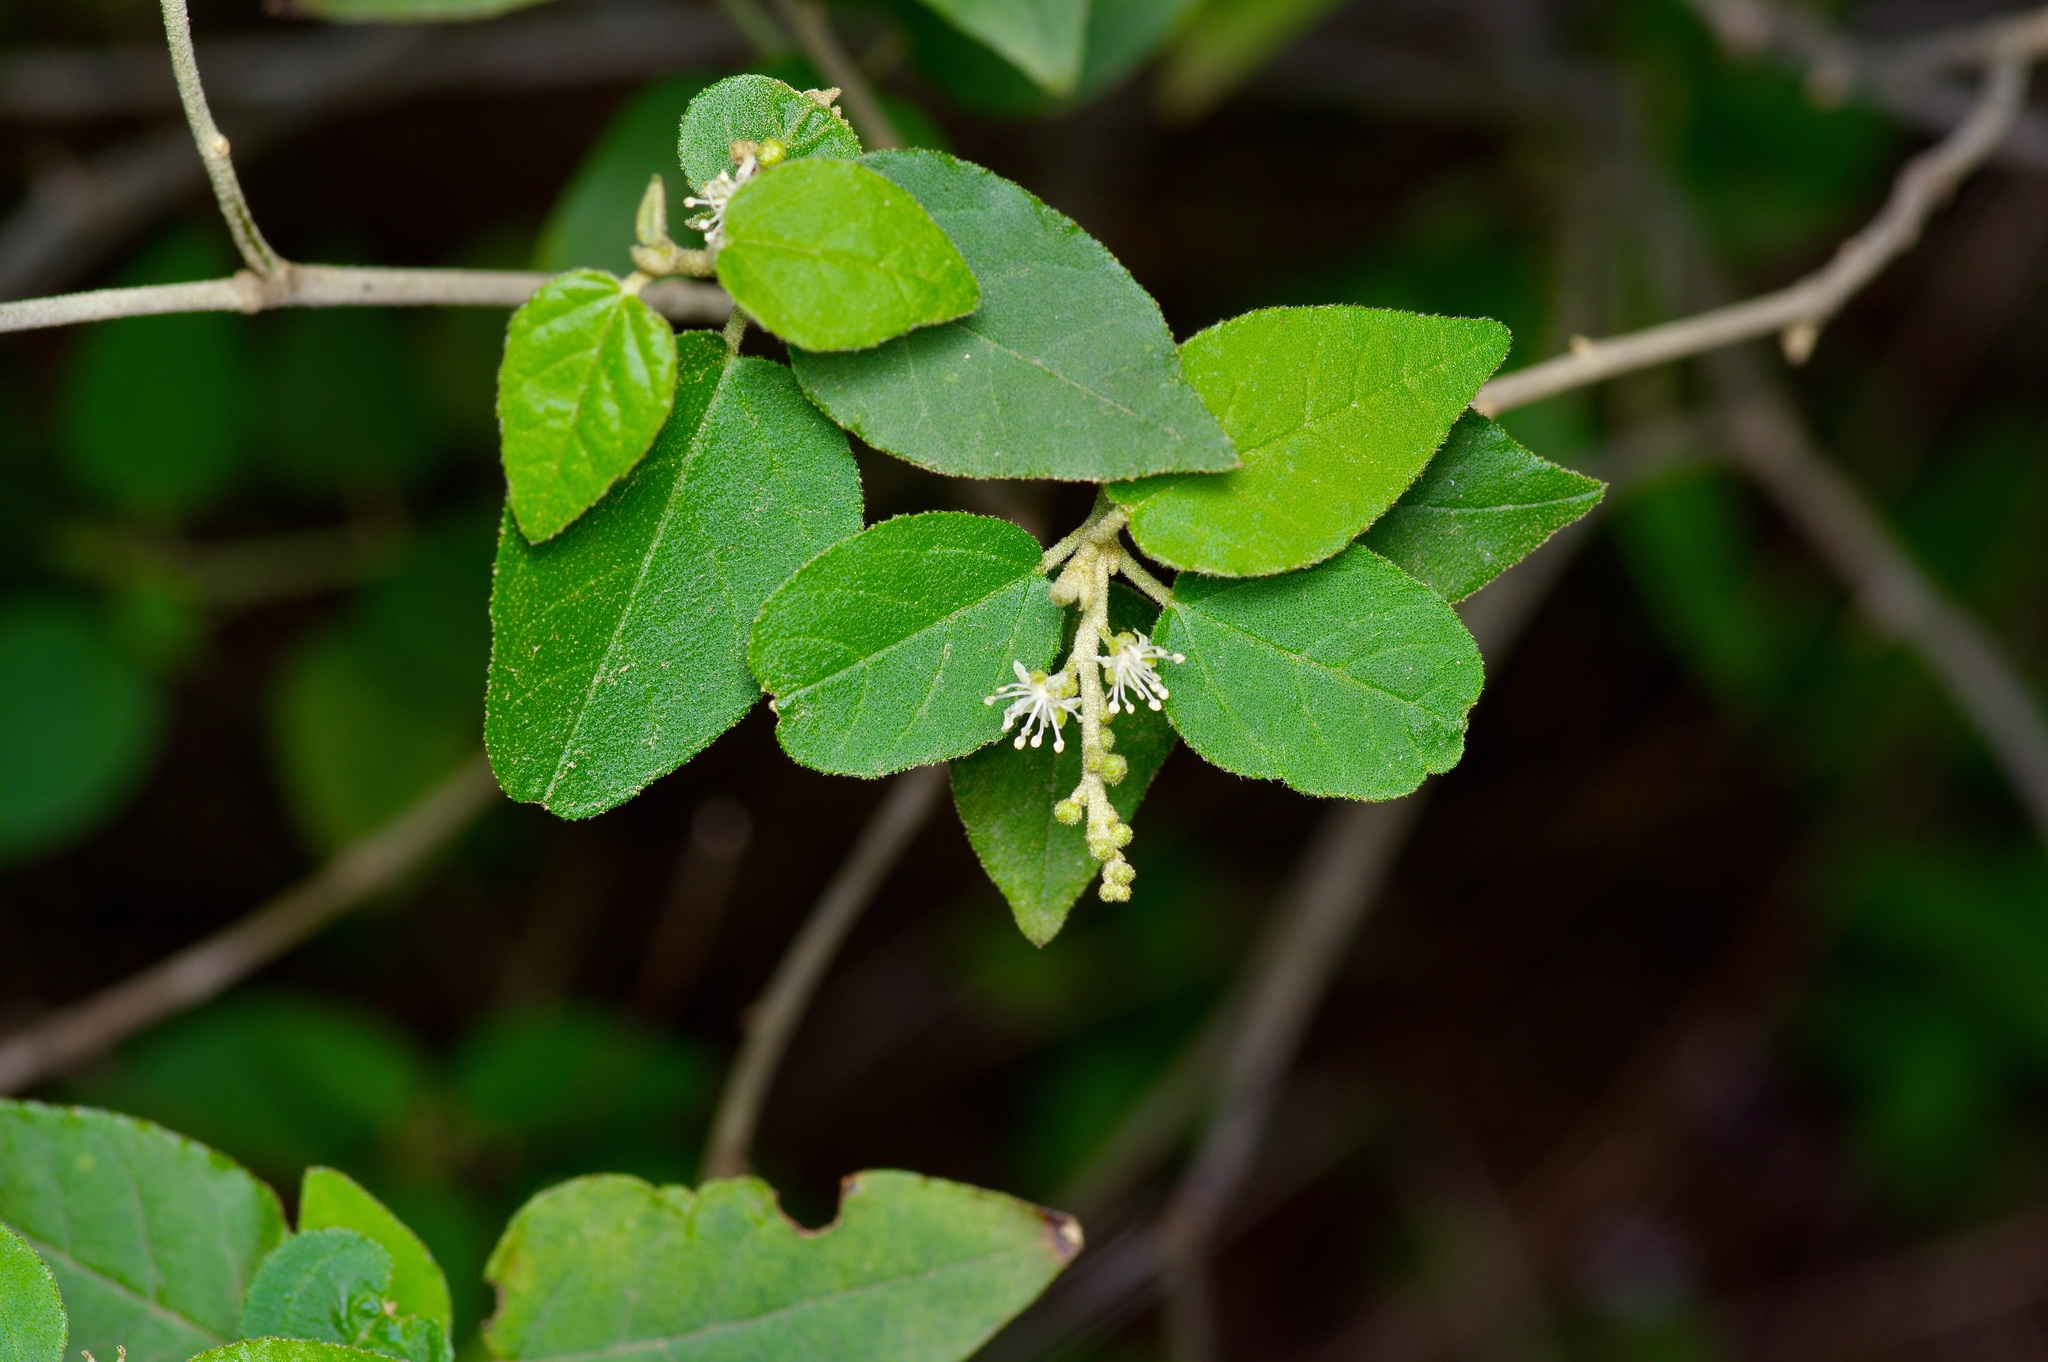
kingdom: Plantae
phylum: Tracheophyta
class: Magnoliopsida
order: Malpighiales
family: Euphorbiaceae
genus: Croton
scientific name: Croton fruticulosus
